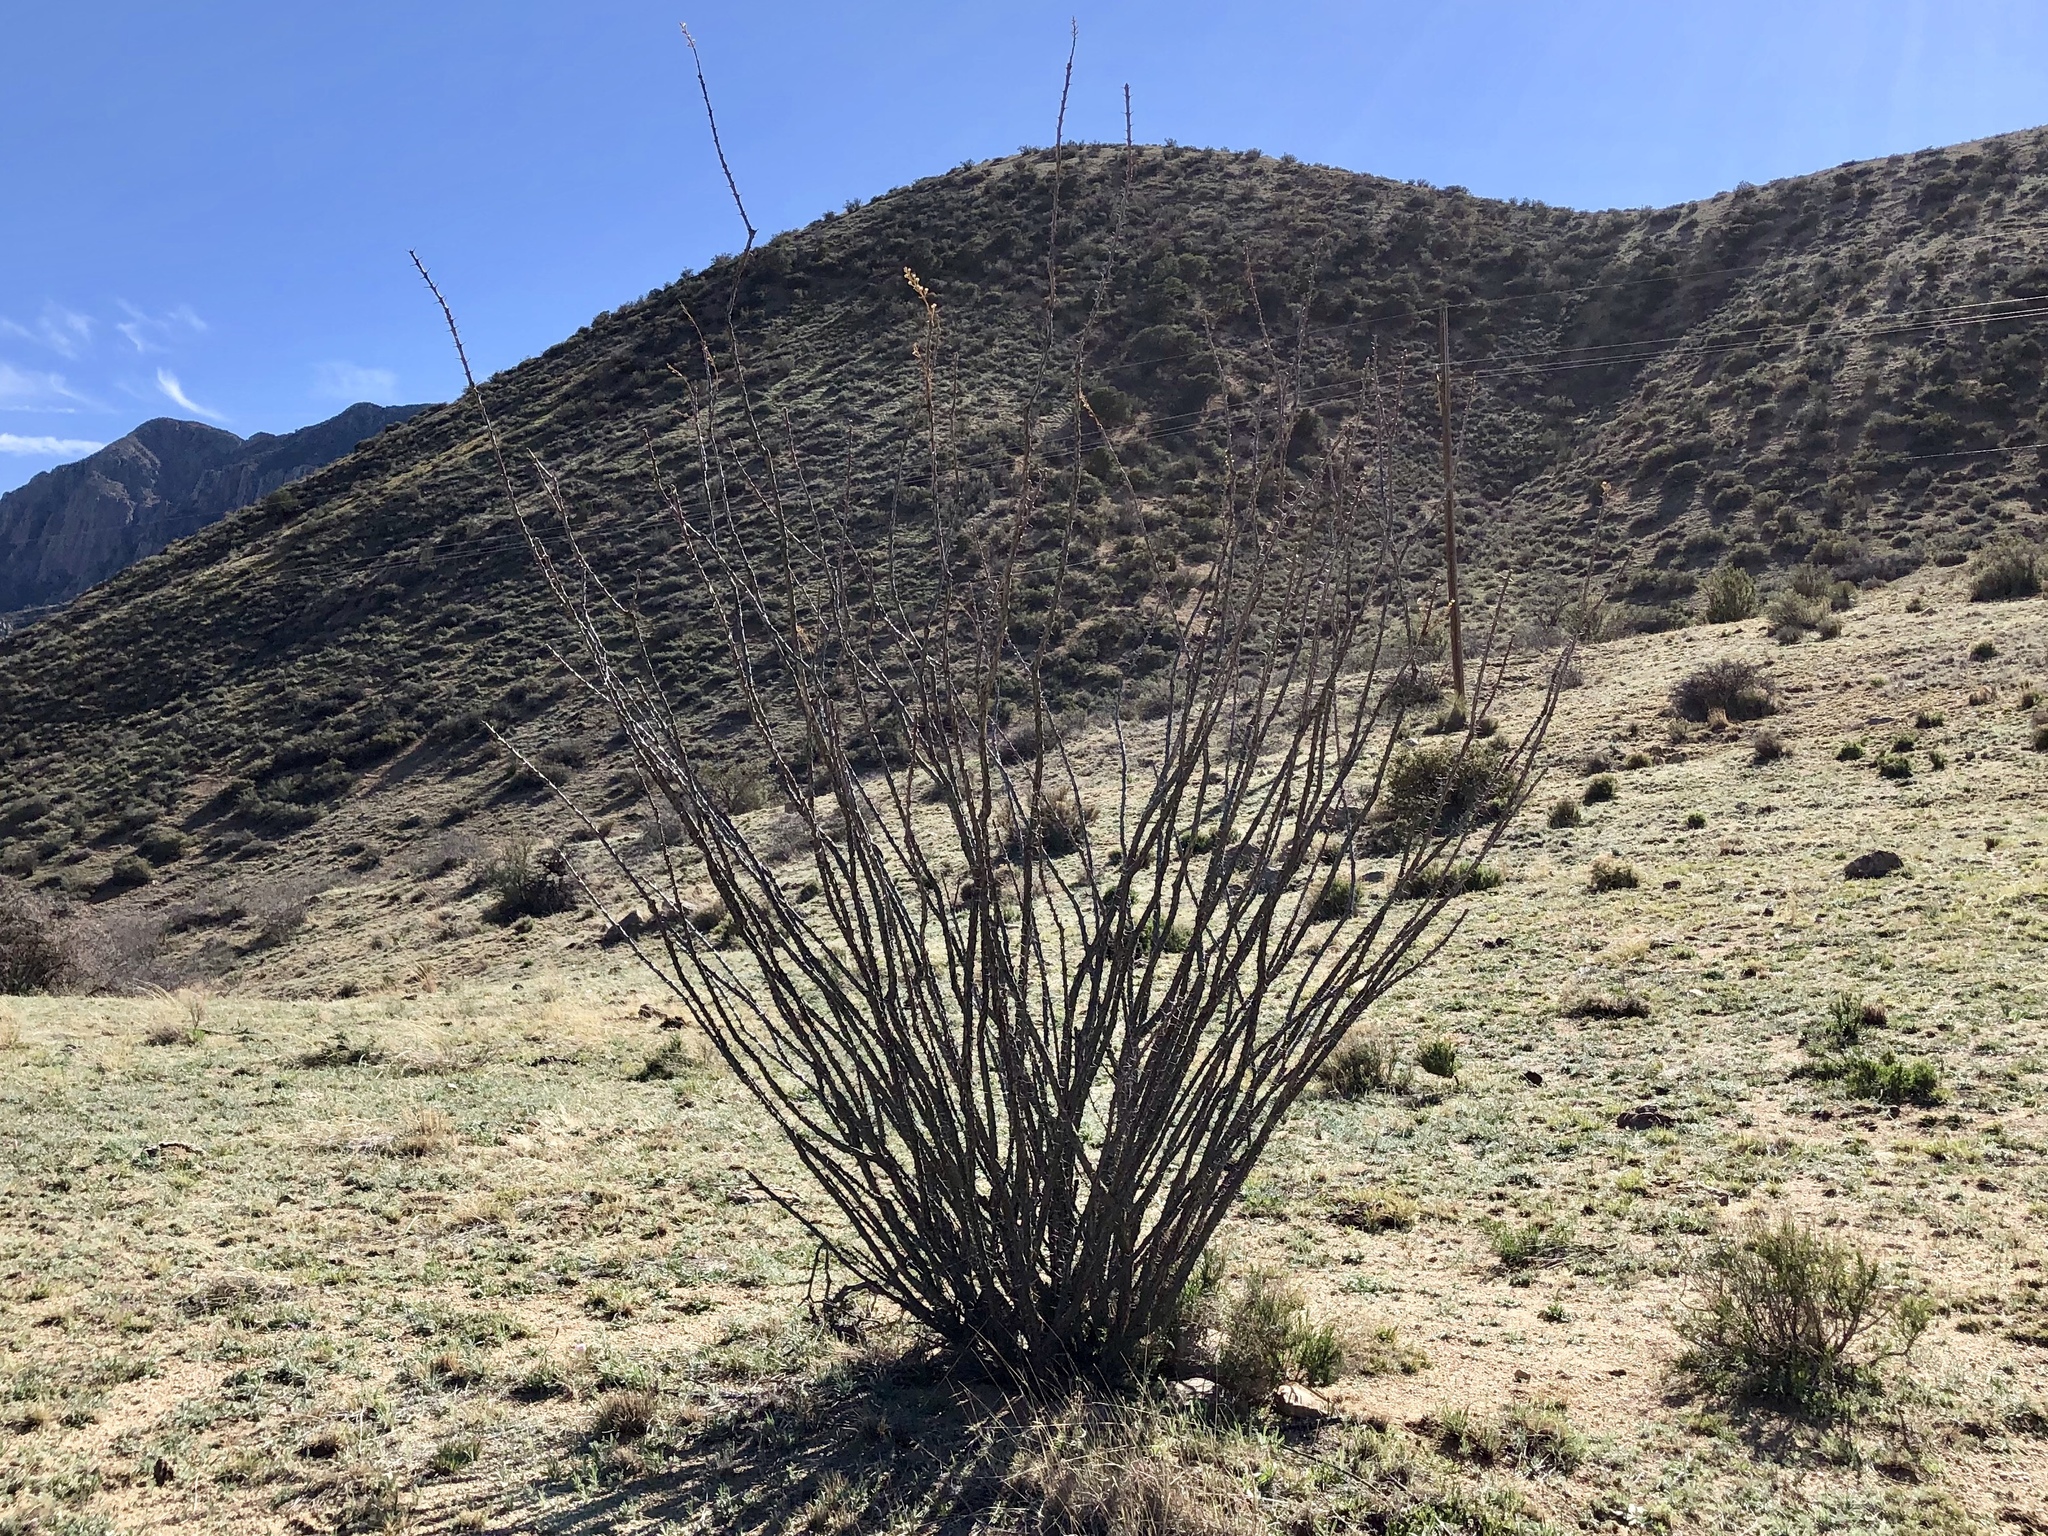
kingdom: Plantae
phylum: Tracheophyta
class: Magnoliopsida
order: Ericales
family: Fouquieriaceae
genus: Fouquieria
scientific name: Fouquieria splendens
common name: Vine-cactus
